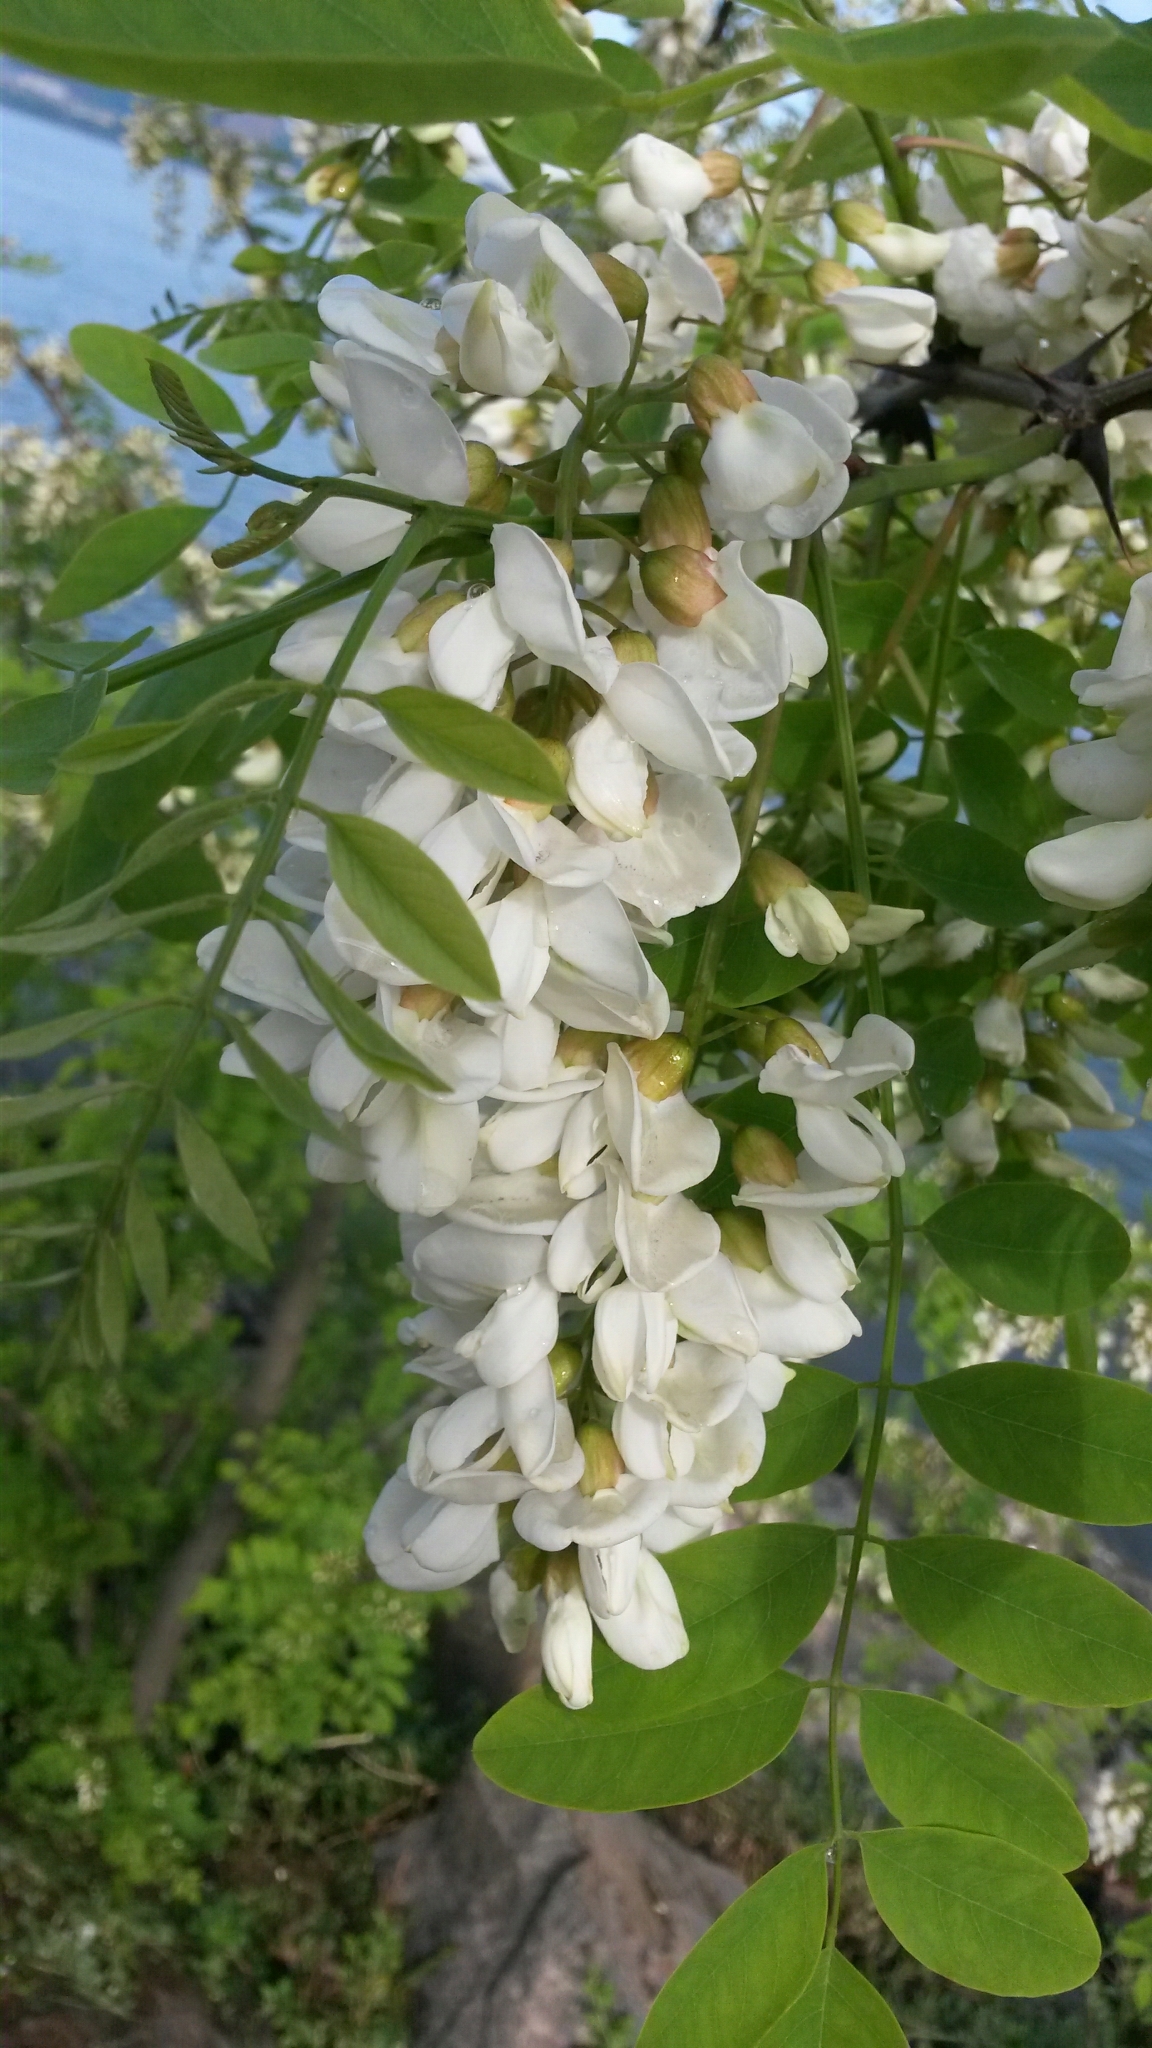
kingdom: Plantae
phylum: Tracheophyta
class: Magnoliopsida
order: Fabales
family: Fabaceae
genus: Robinia
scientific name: Robinia pseudoacacia
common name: Black locust
